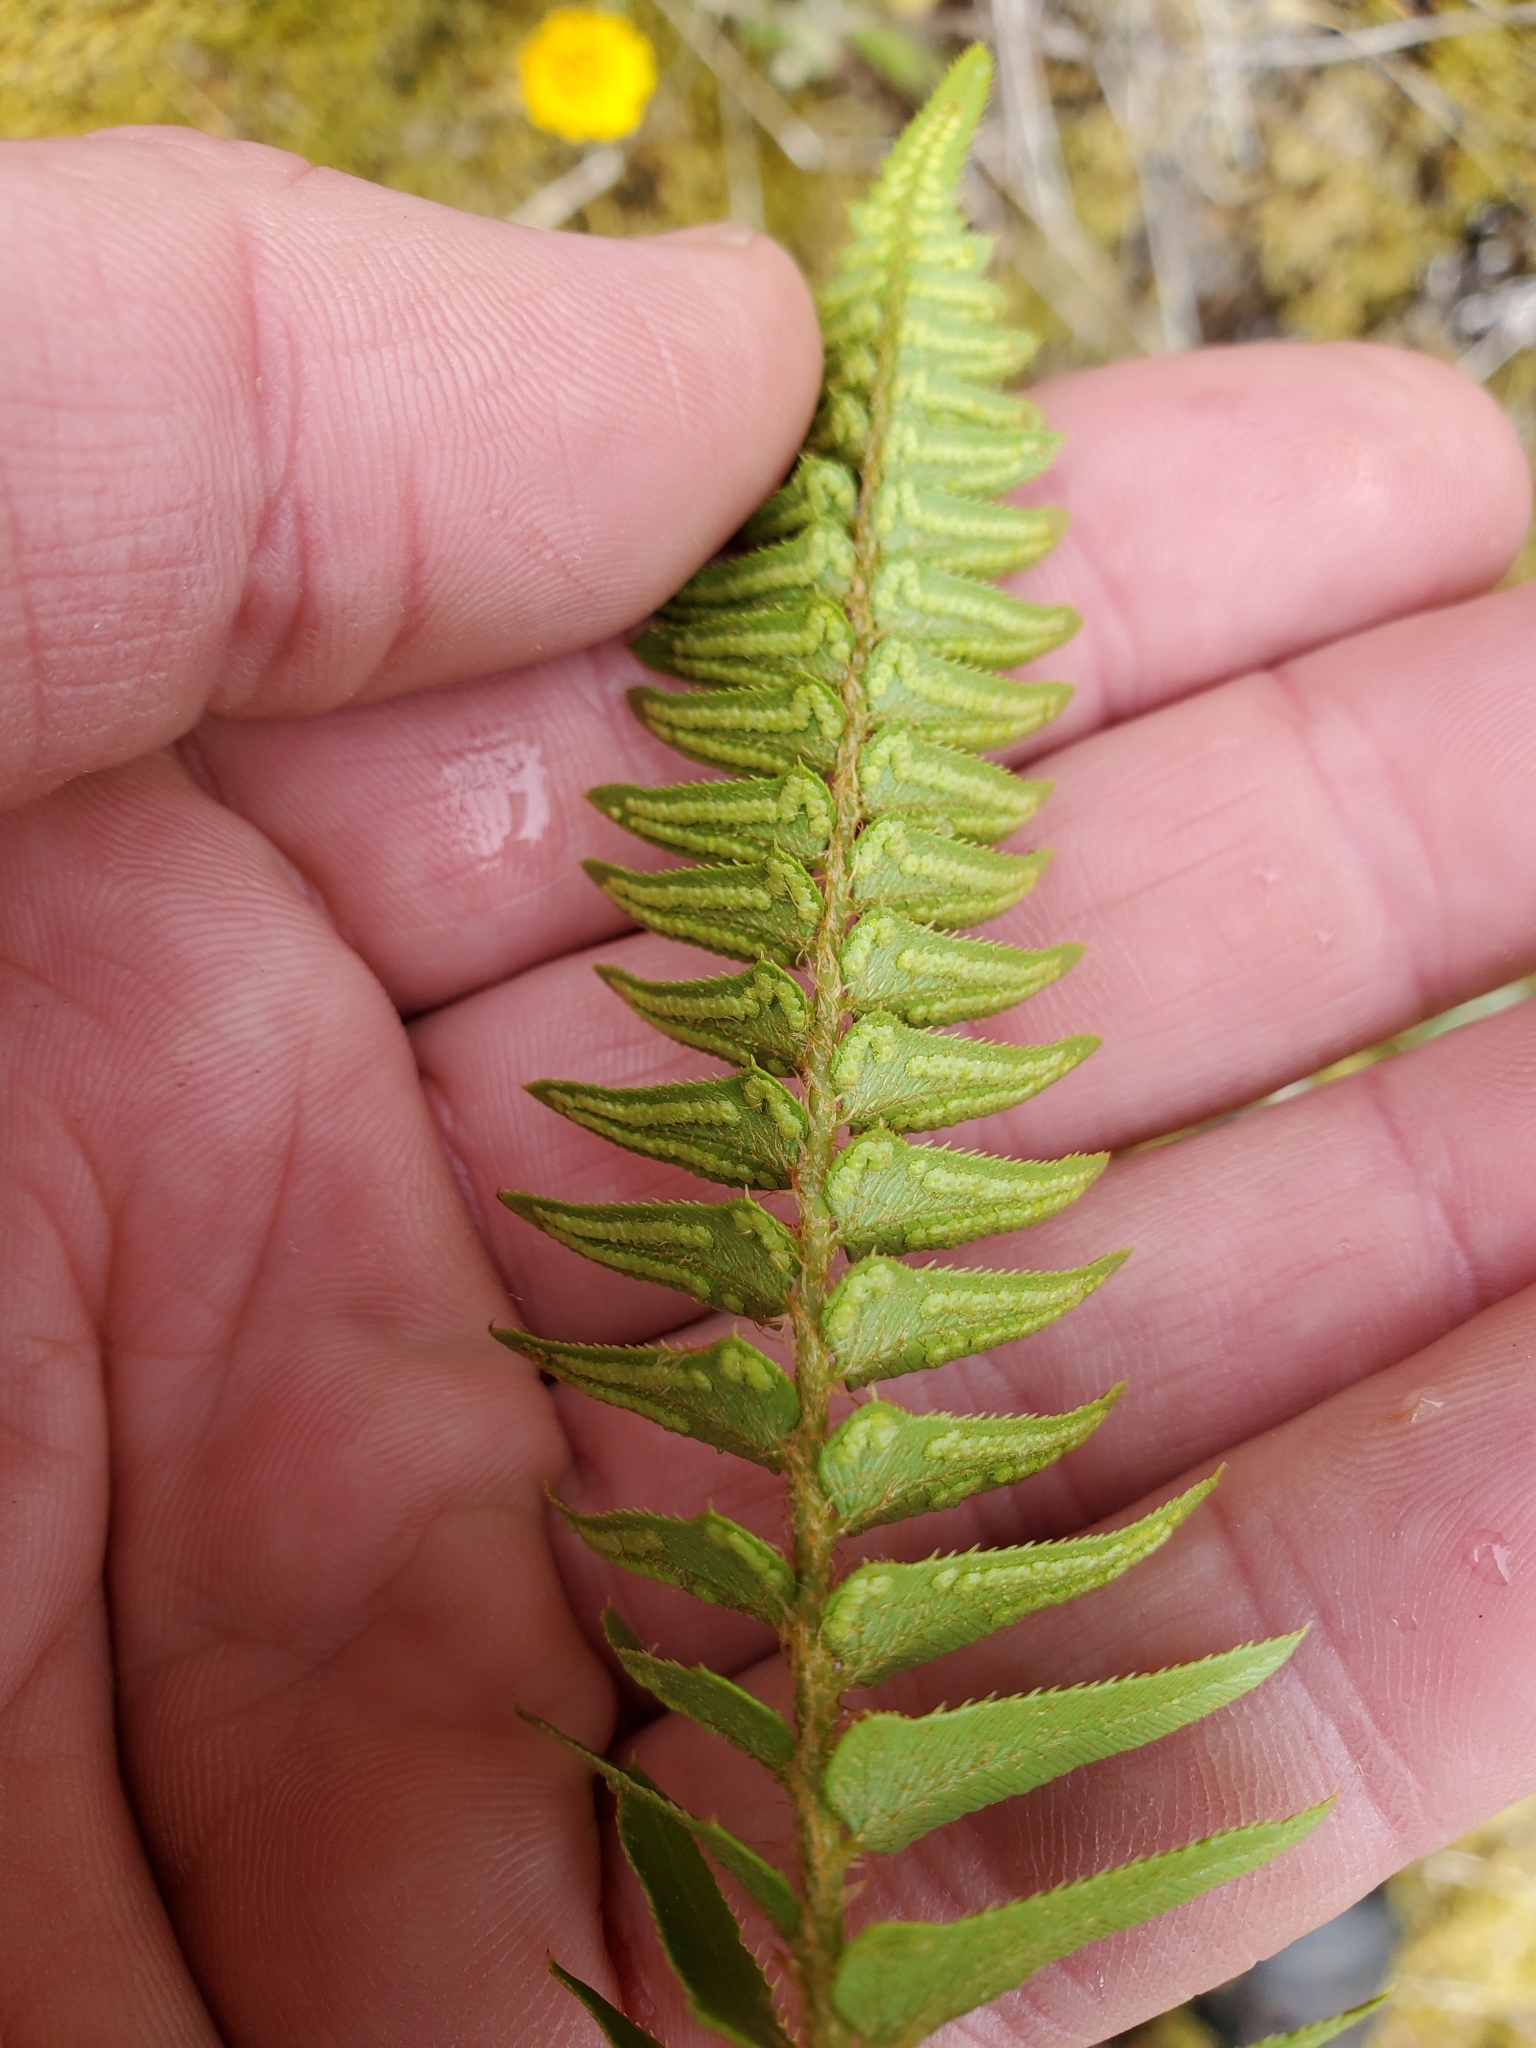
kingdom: Plantae
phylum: Tracheophyta
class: Polypodiopsida
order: Polypodiales
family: Dryopteridaceae
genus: Polystichum
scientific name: Polystichum imbricans
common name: Dwarf western sword fern
